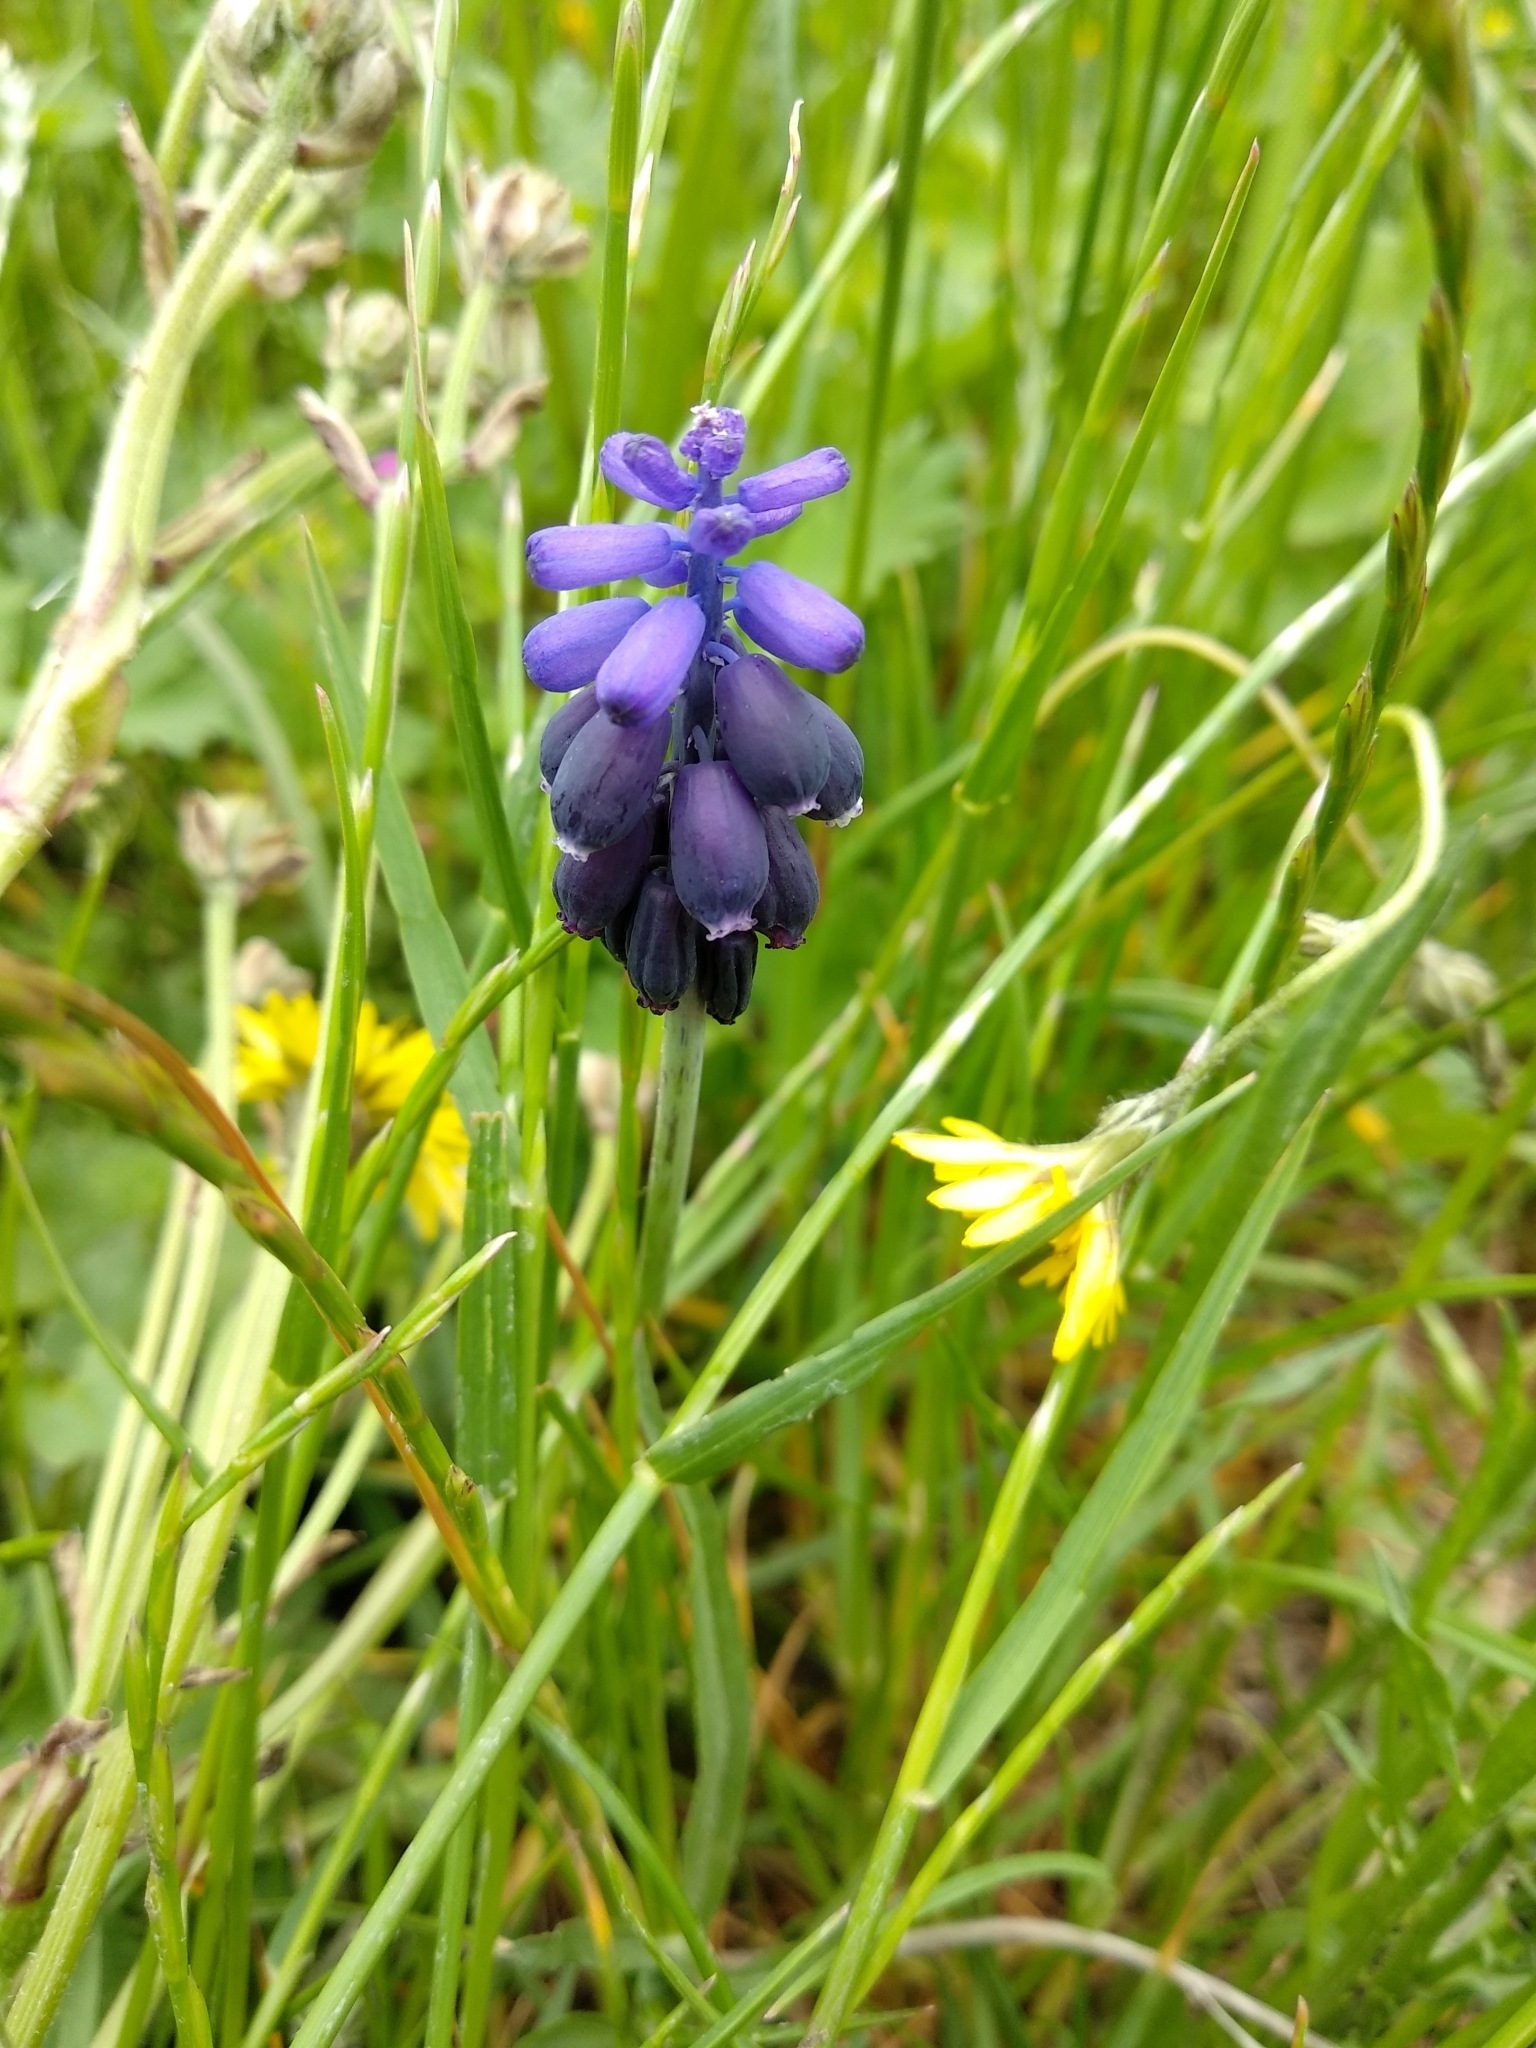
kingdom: Plantae
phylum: Tracheophyta
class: Liliopsida
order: Asparagales
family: Asparagaceae
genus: Muscari
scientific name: Muscari neglectum
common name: Grape-hyacinth
